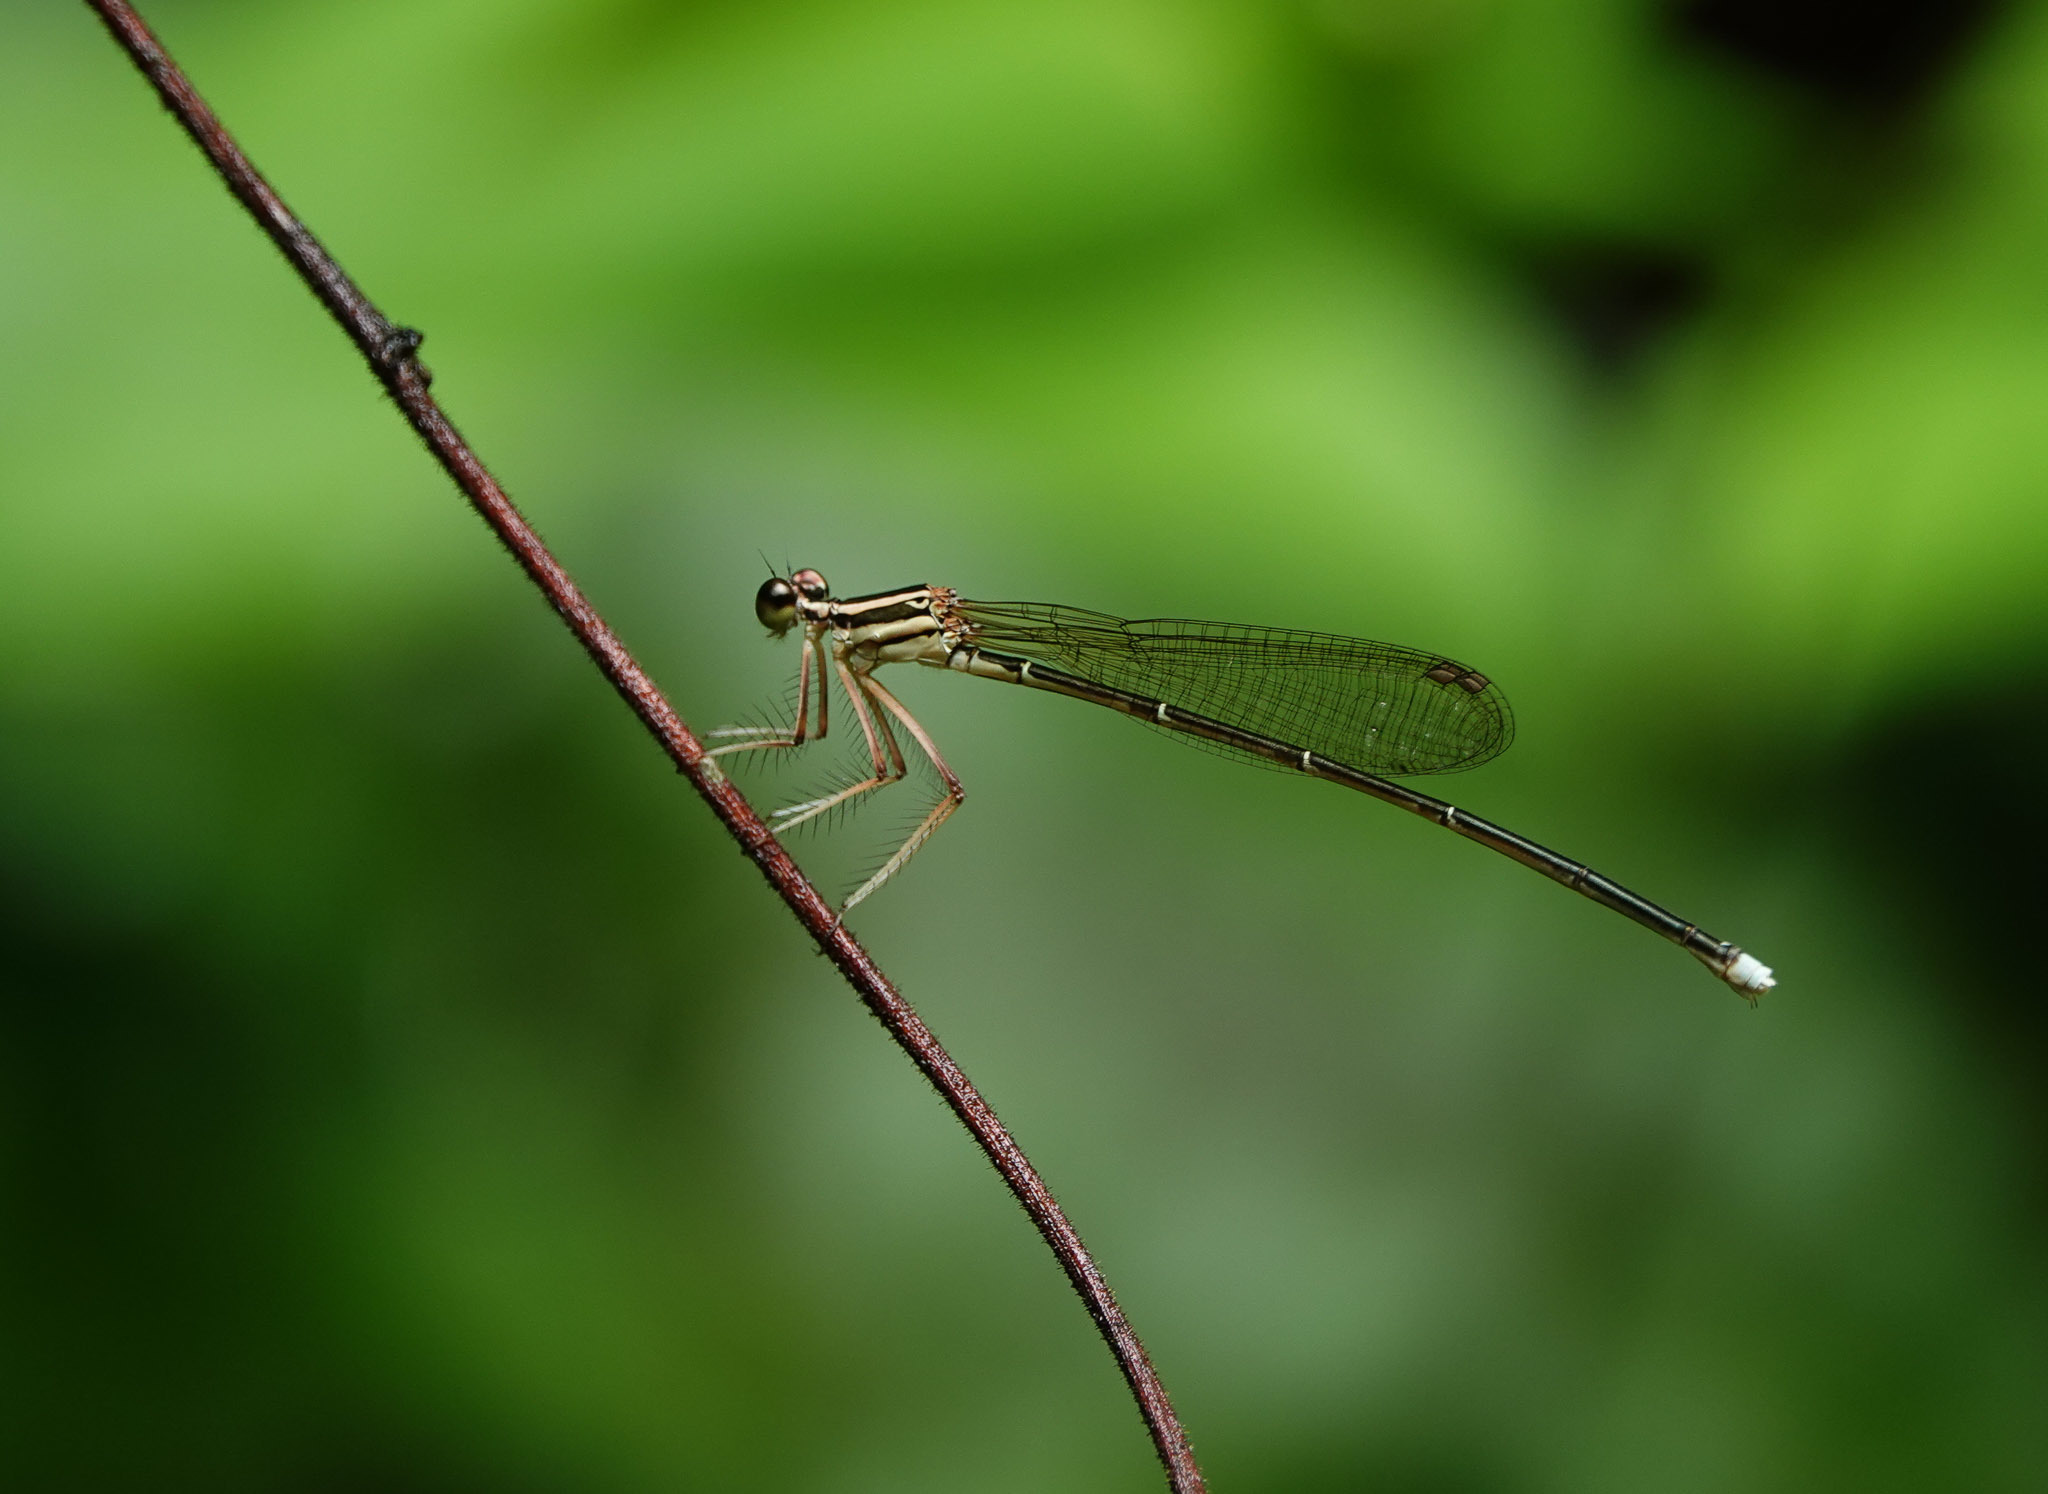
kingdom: Animalia
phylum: Arthropoda
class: Insecta
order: Odonata
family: Platycnemididae
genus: Pseudocopera
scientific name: Pseudocopera ciliata
